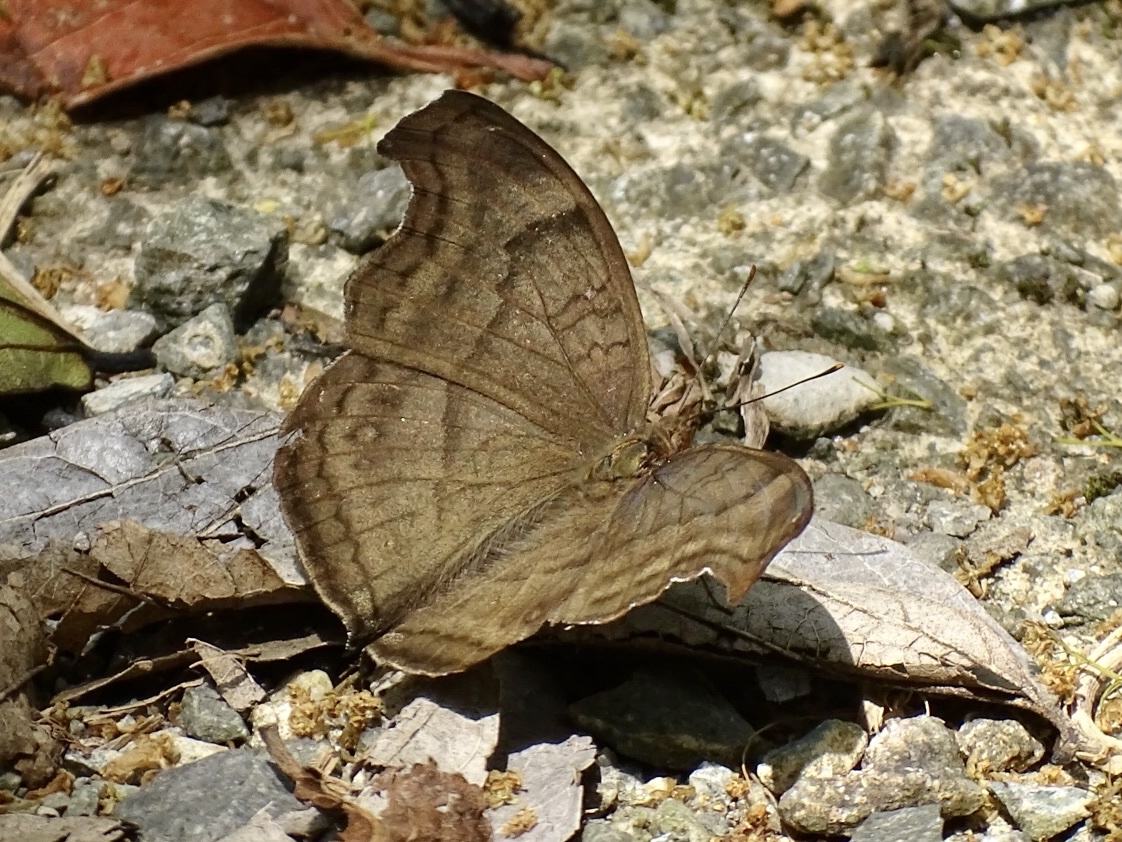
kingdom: Animalia
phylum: Arthropoda
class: Insecta
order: Lepidoptera
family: Nymphalidae
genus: Junonia
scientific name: Junonia iphita
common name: Chocolate pansy
